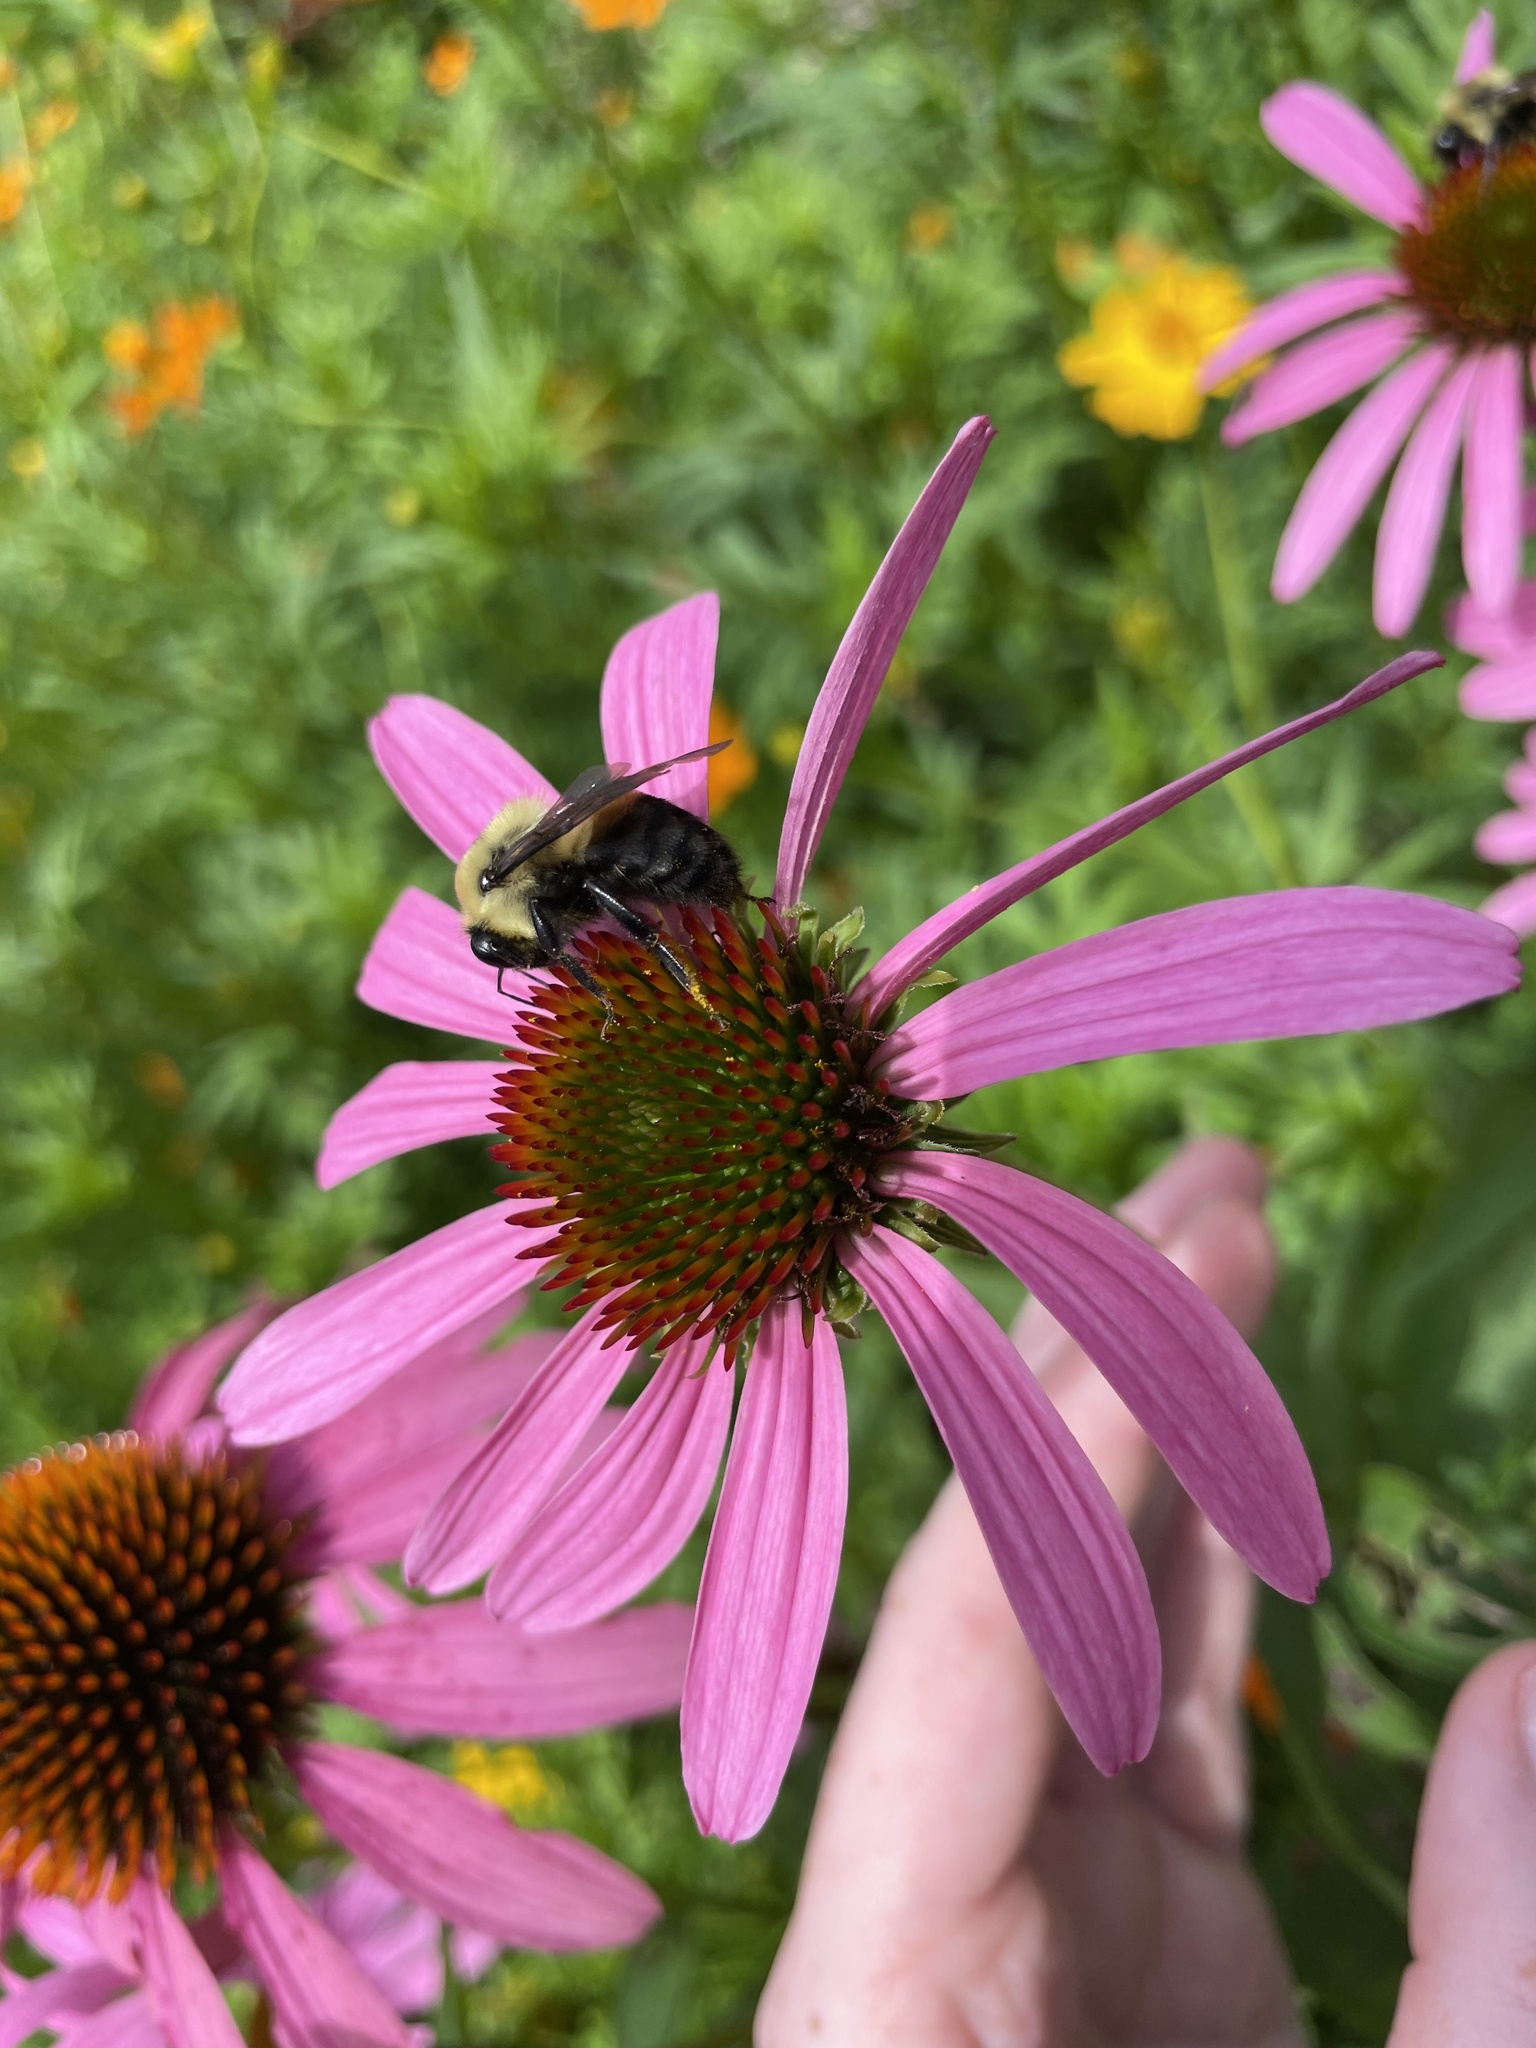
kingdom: Animalia
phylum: Arthropoda
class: Insecta
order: Hymenoptera
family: Apidae
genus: Bombus
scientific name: Bombus griseocollis
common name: Brown-belted bumble bee
